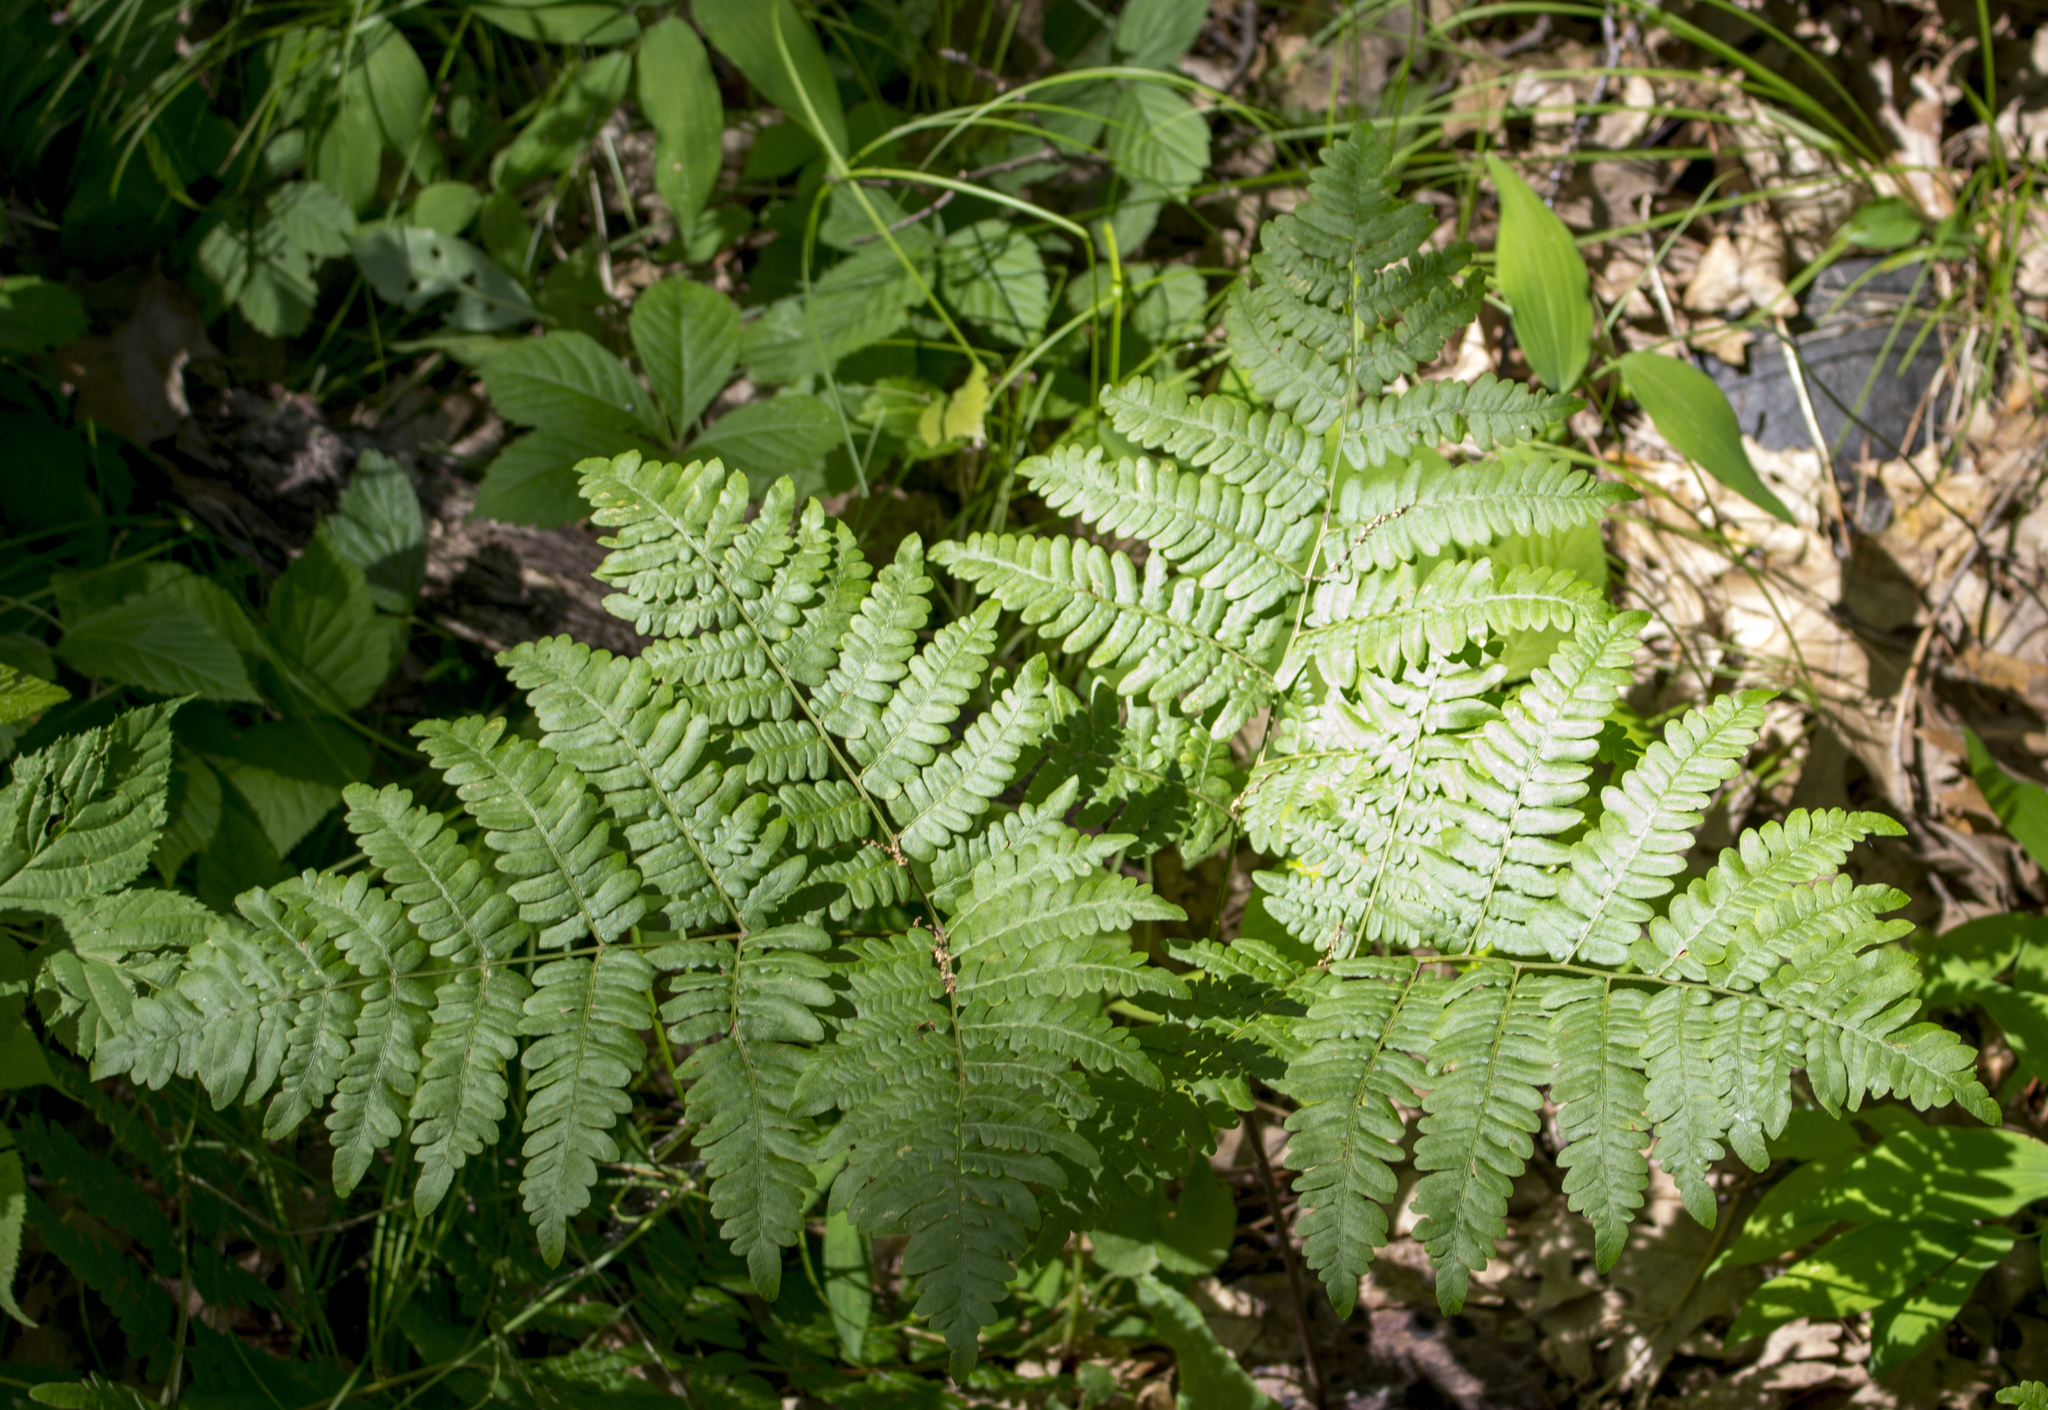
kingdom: Plantae
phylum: Tracheophyta
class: Polypodiopsida
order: Polypodiales
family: Dennstaedtiaceae
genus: Pteridium
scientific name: Pteridium aquilinum
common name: Bracken
